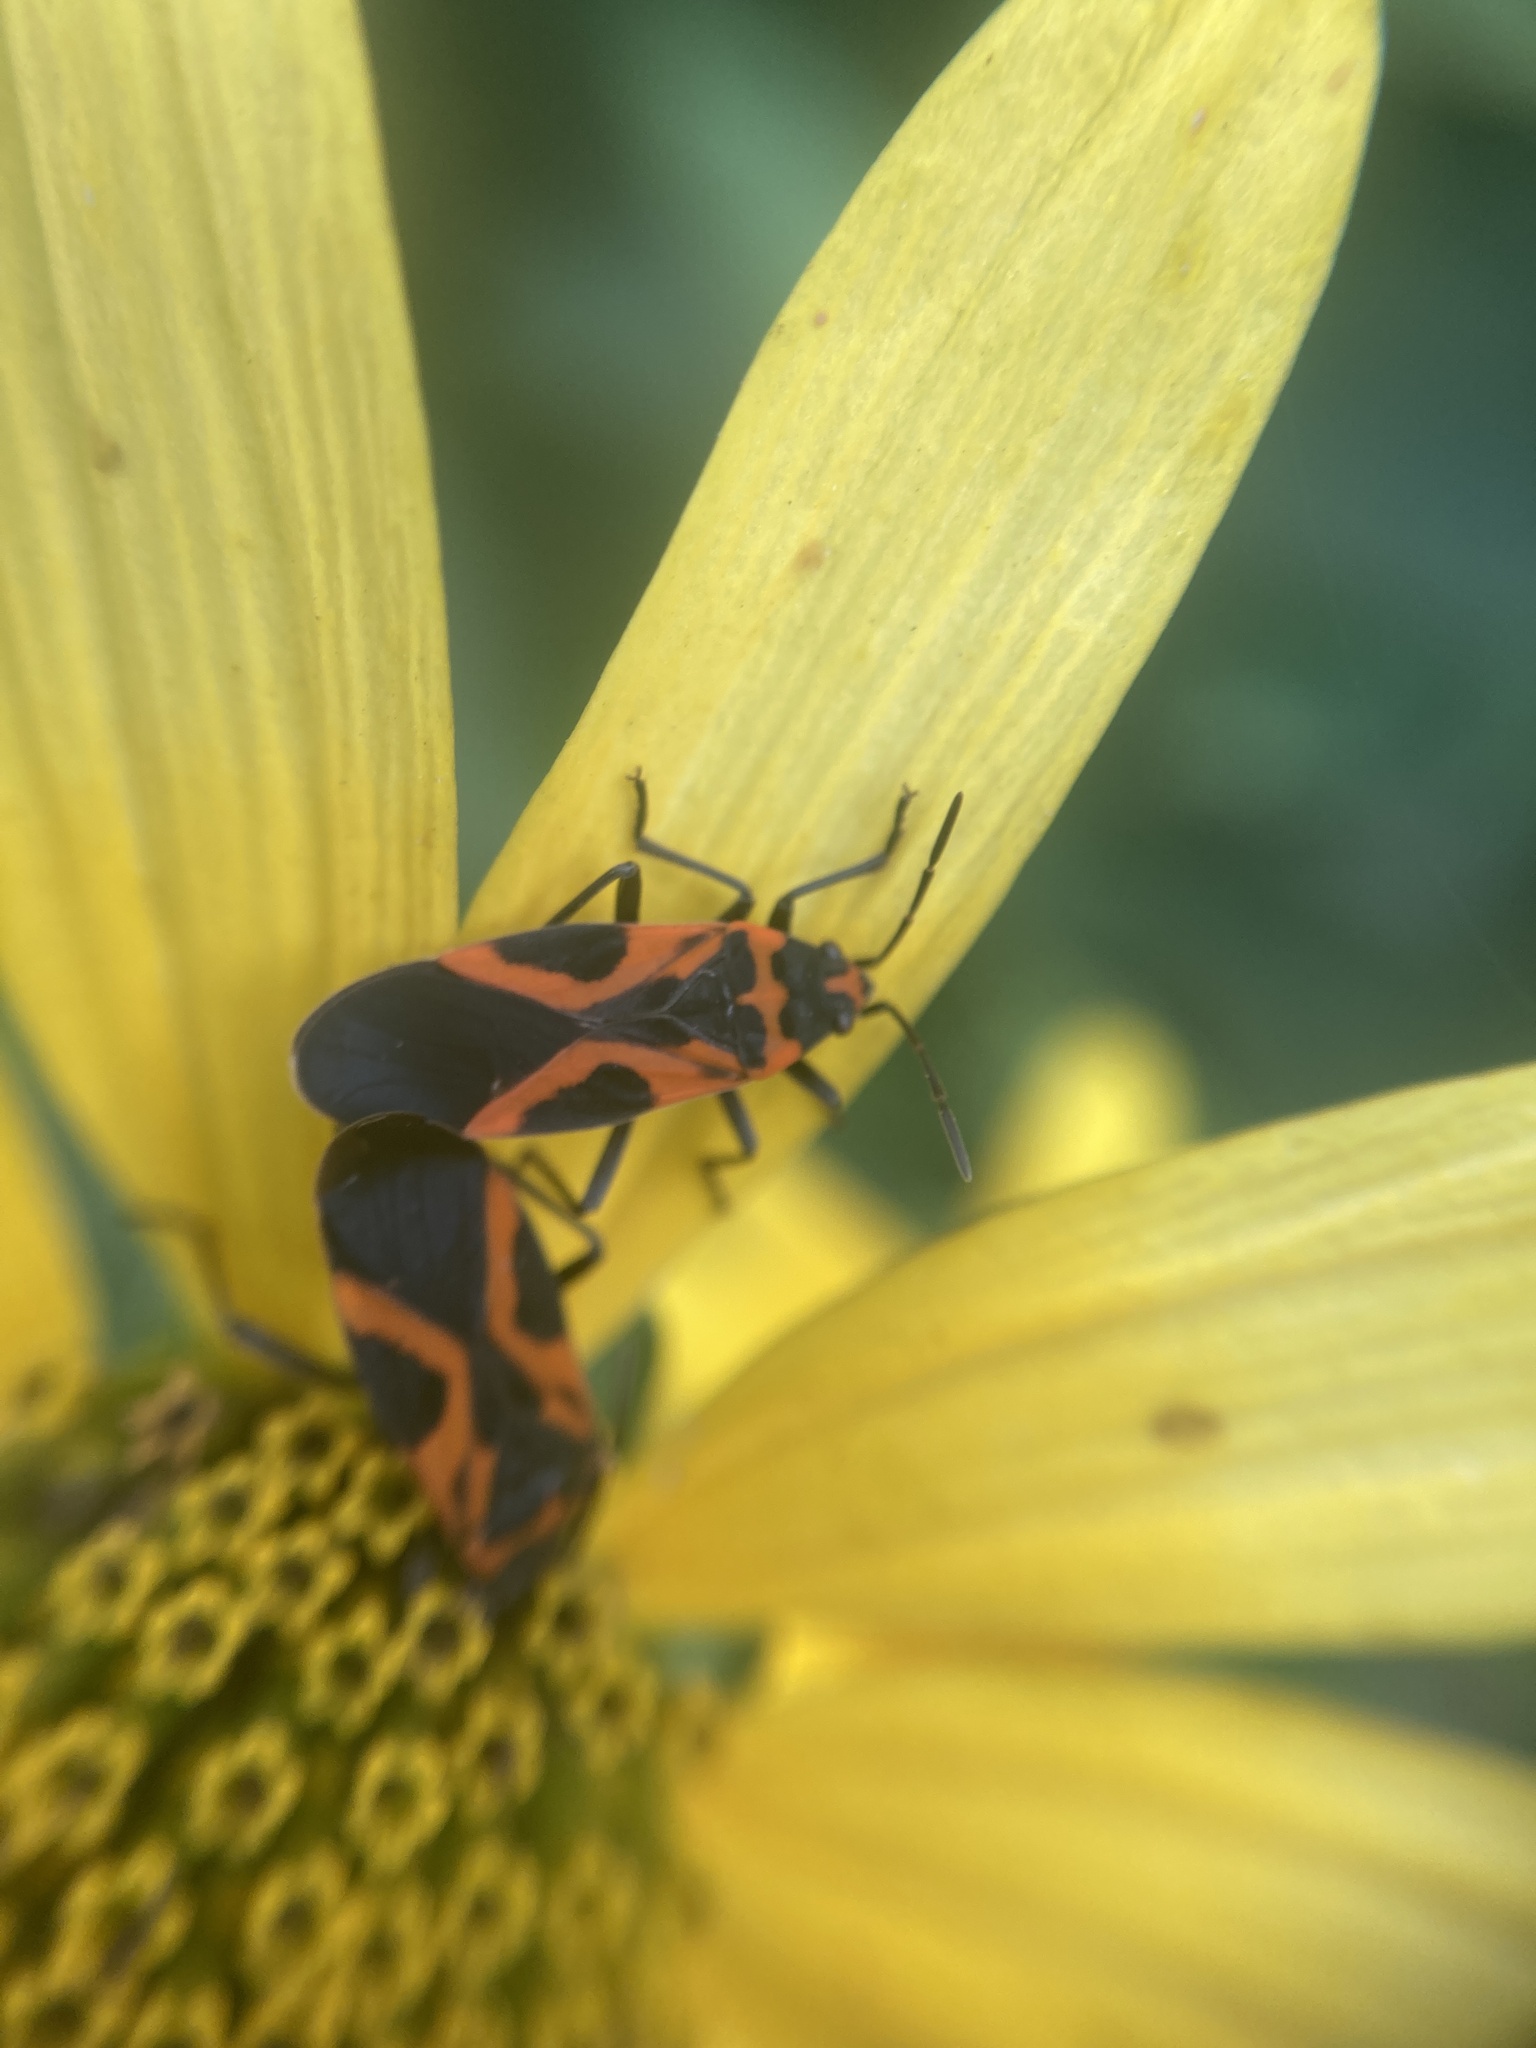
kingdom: Animalia
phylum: Arthropoda
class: Insecta
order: Hemiptera
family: Lygaeidae
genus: Lygaeus
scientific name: Lygaeus turcicus
